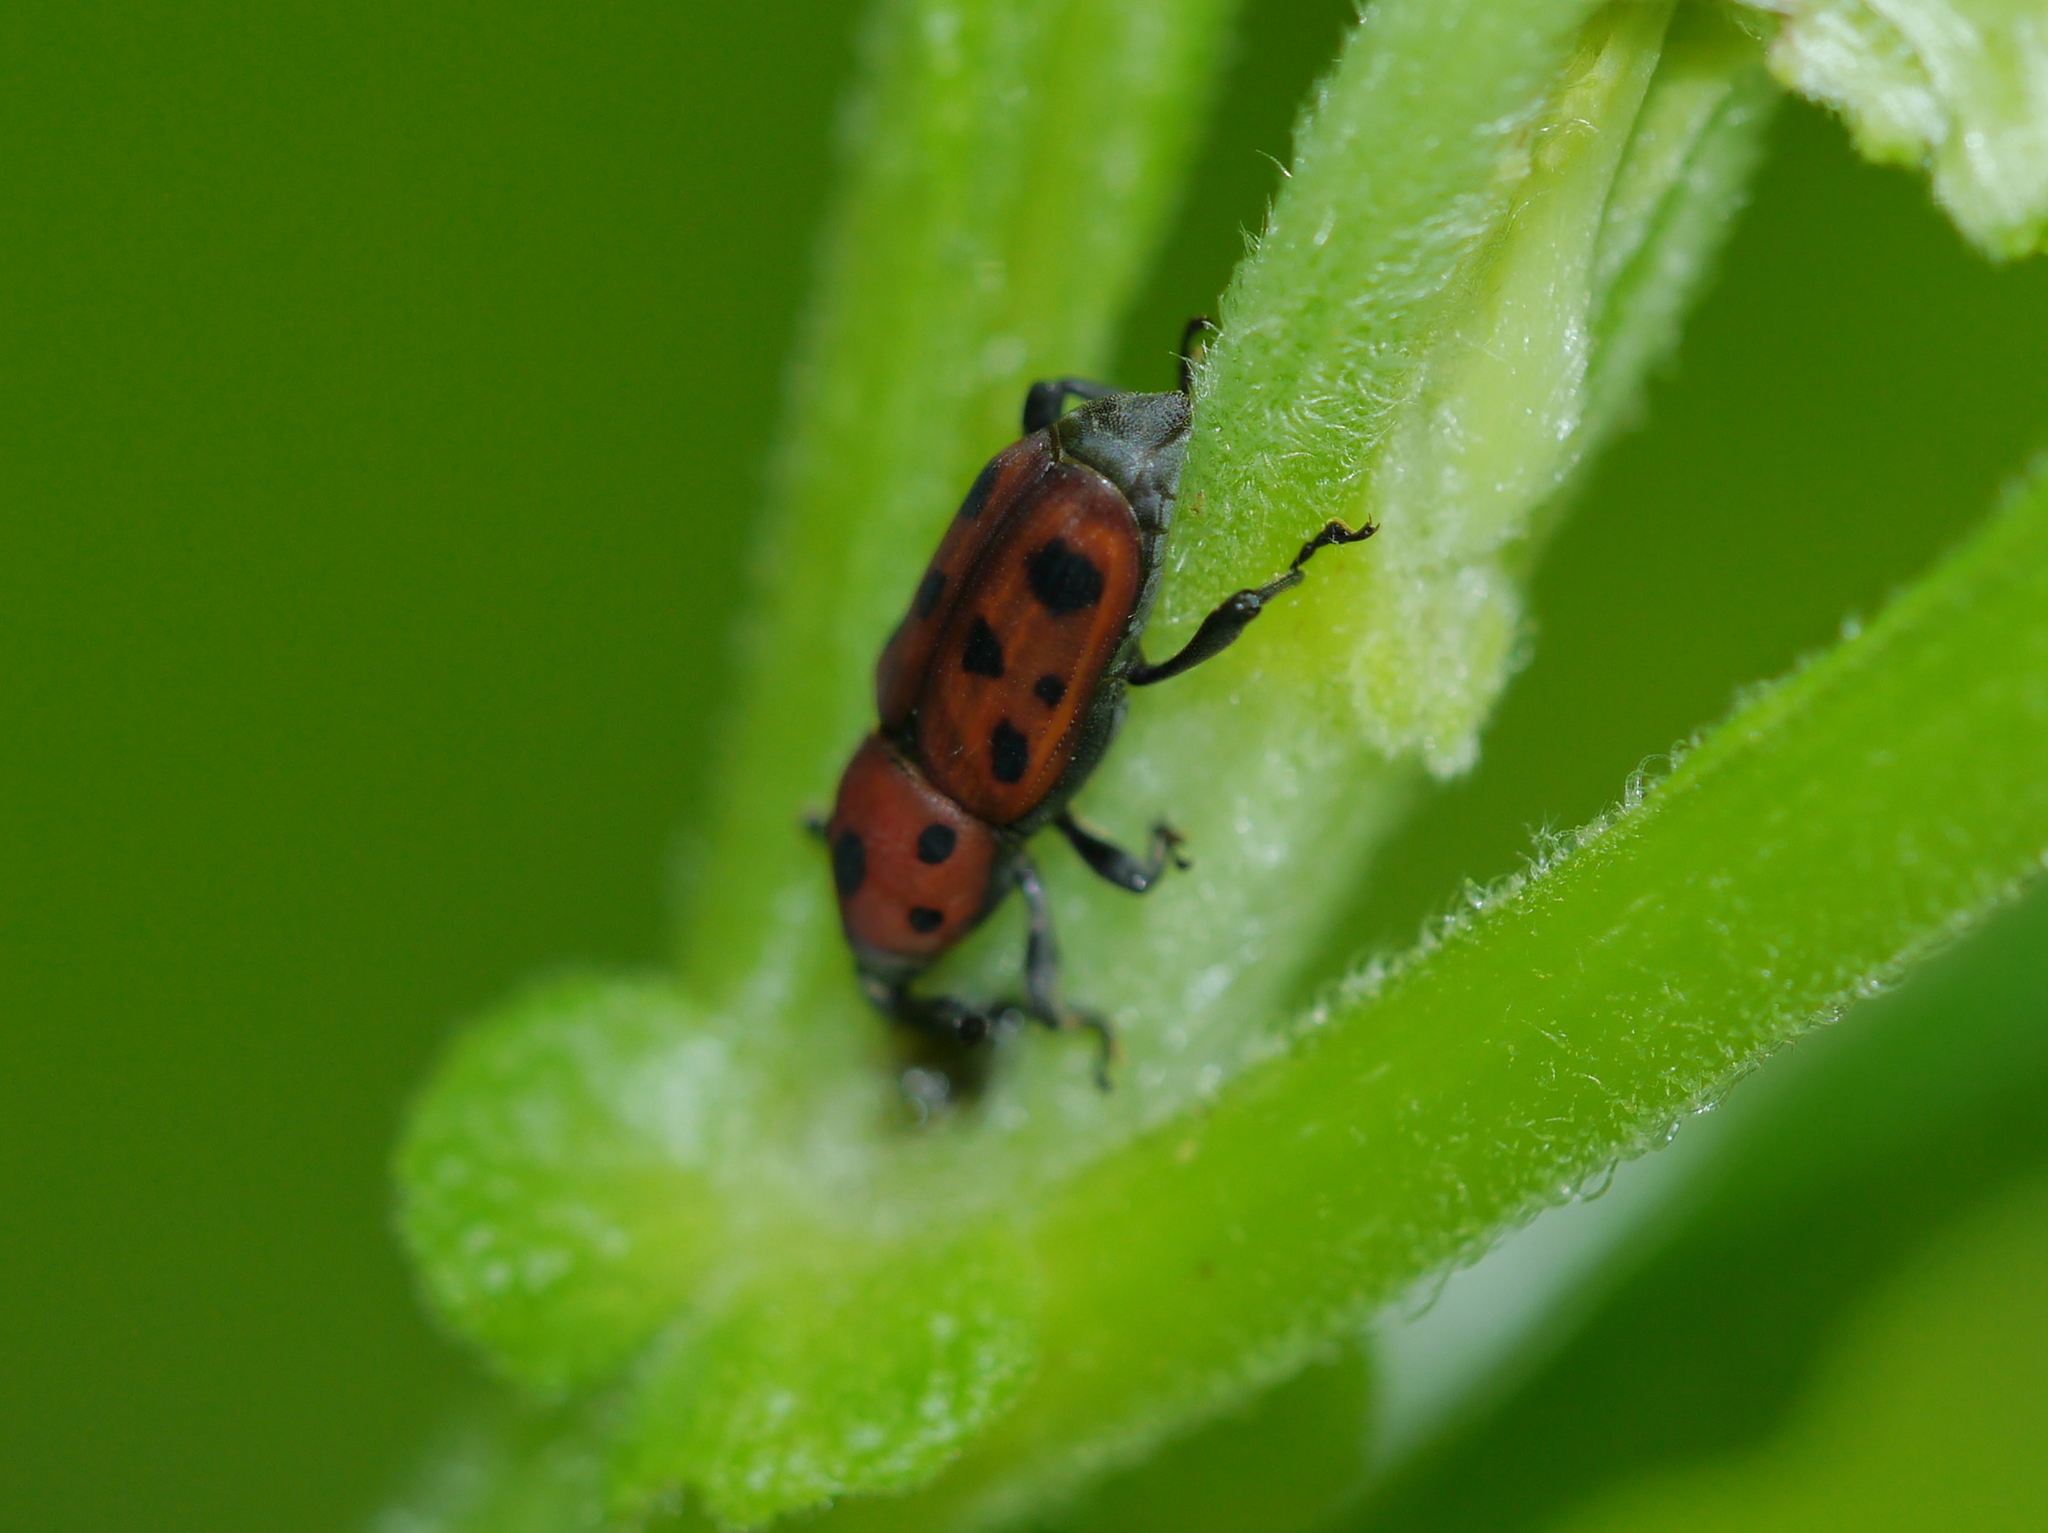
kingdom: Animalia
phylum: Arthropoda
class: Insecta
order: Coleoptera
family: Dryophthoridae
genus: Rhodobaenus
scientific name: Rhodobaenus tredecimpunctatus
